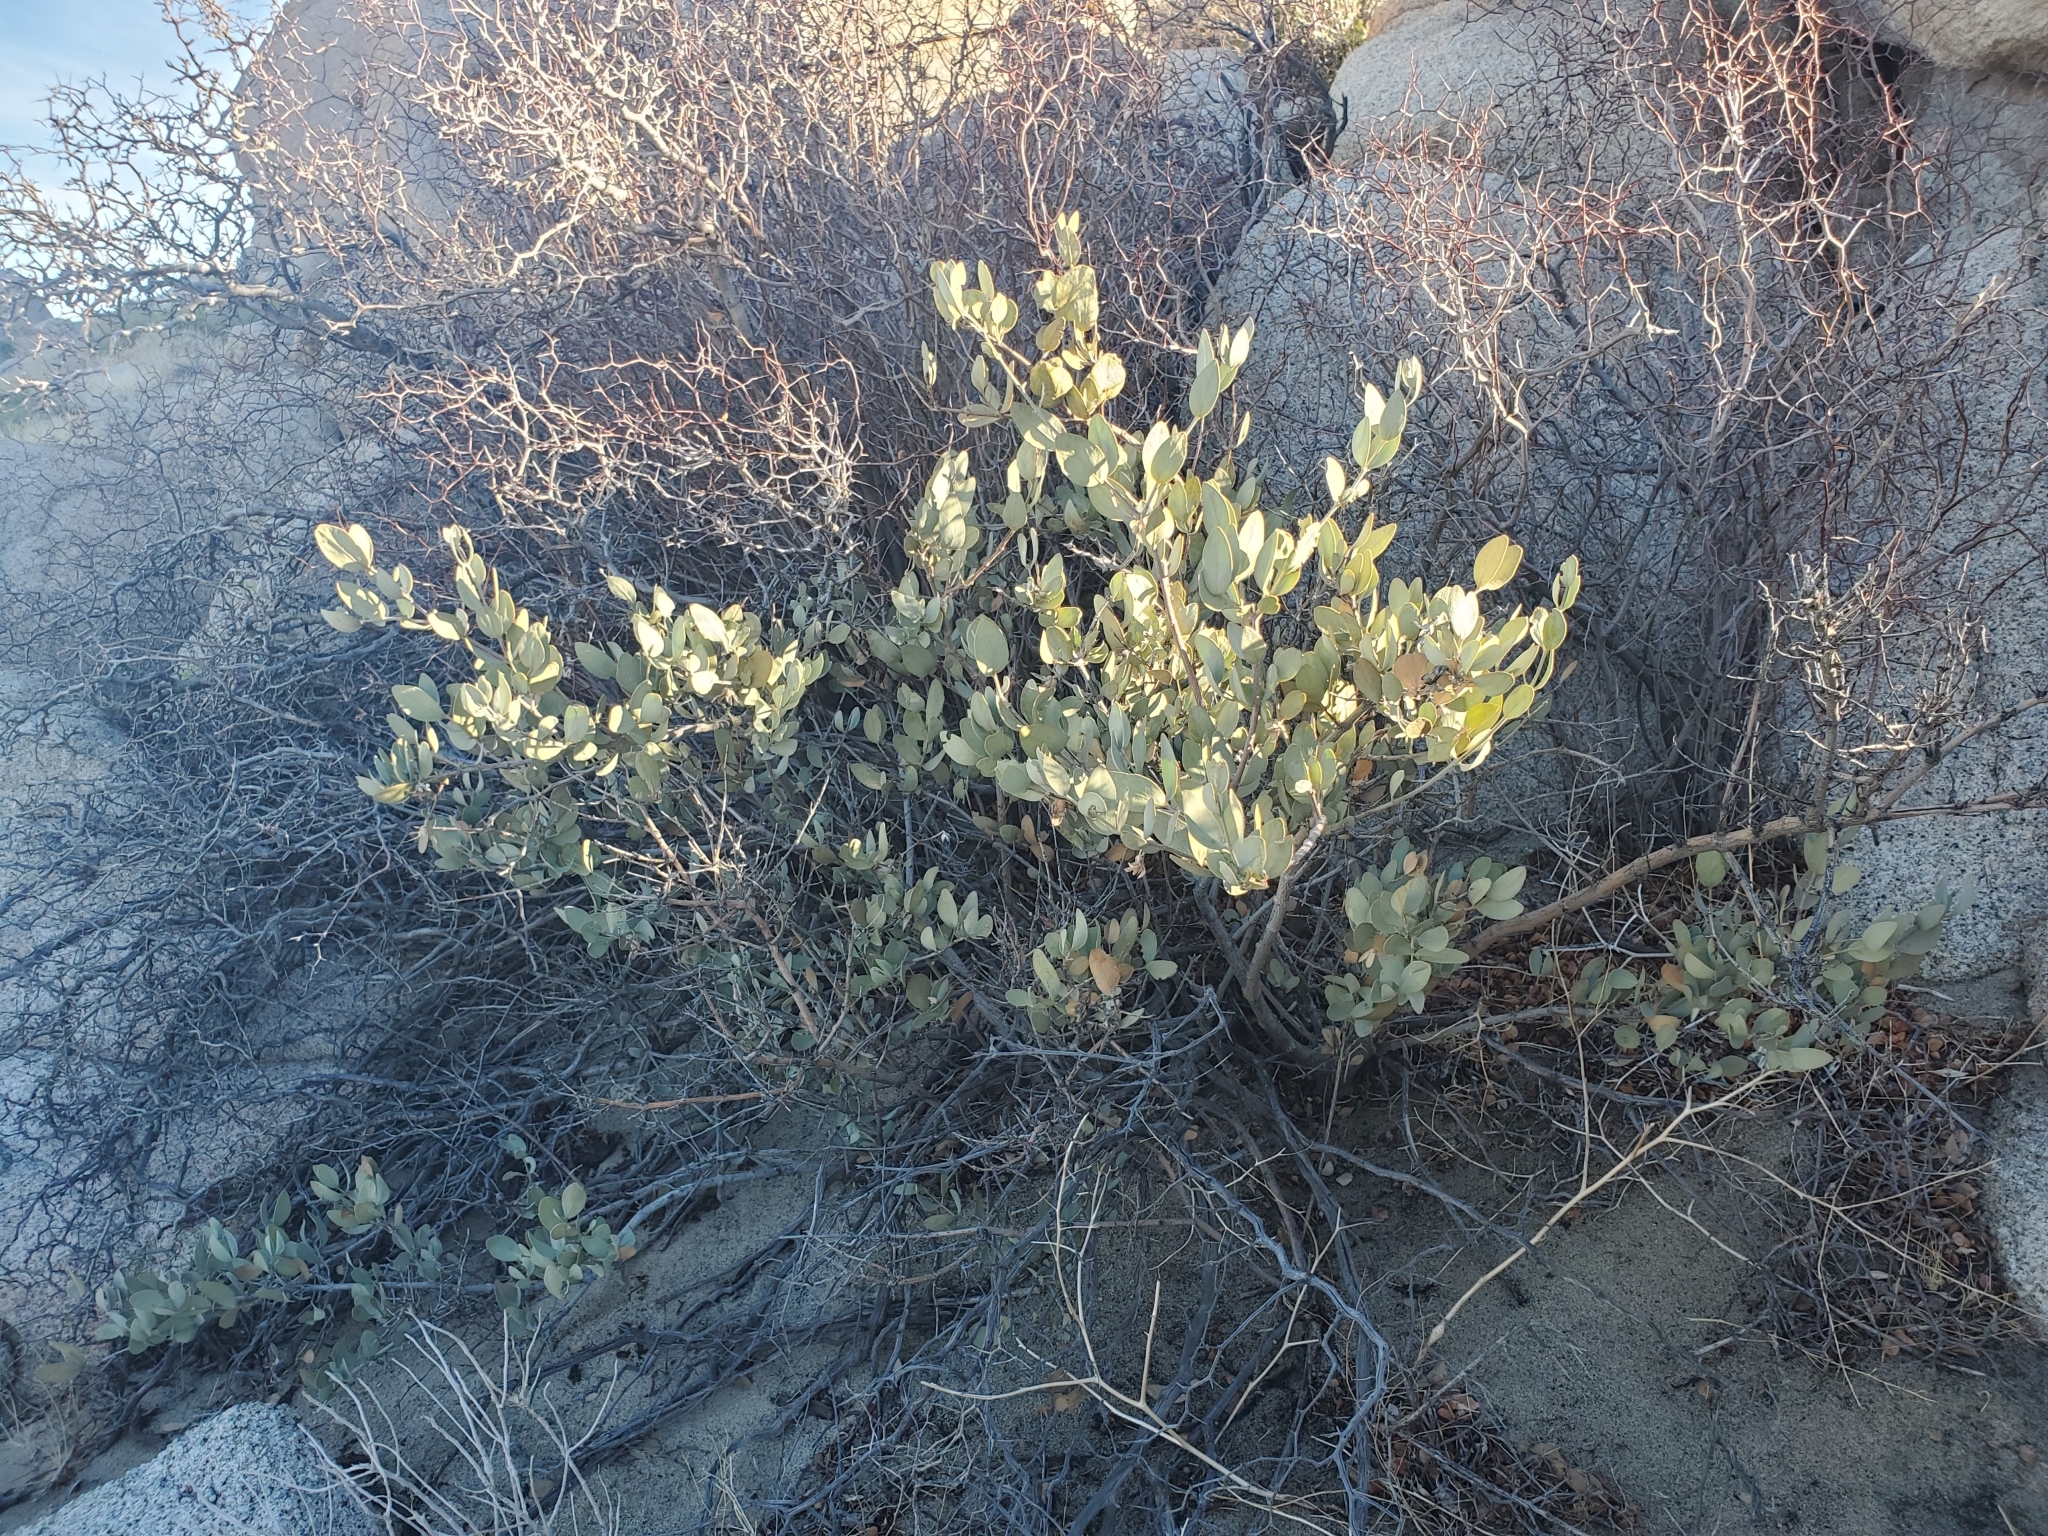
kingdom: Plantae
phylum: Tracheophyta
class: Magnoliopsida
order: Caryophyllales
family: Simmondsiaceae
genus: Simmondsia
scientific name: Simmondsia chinensis
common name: Jojoba
